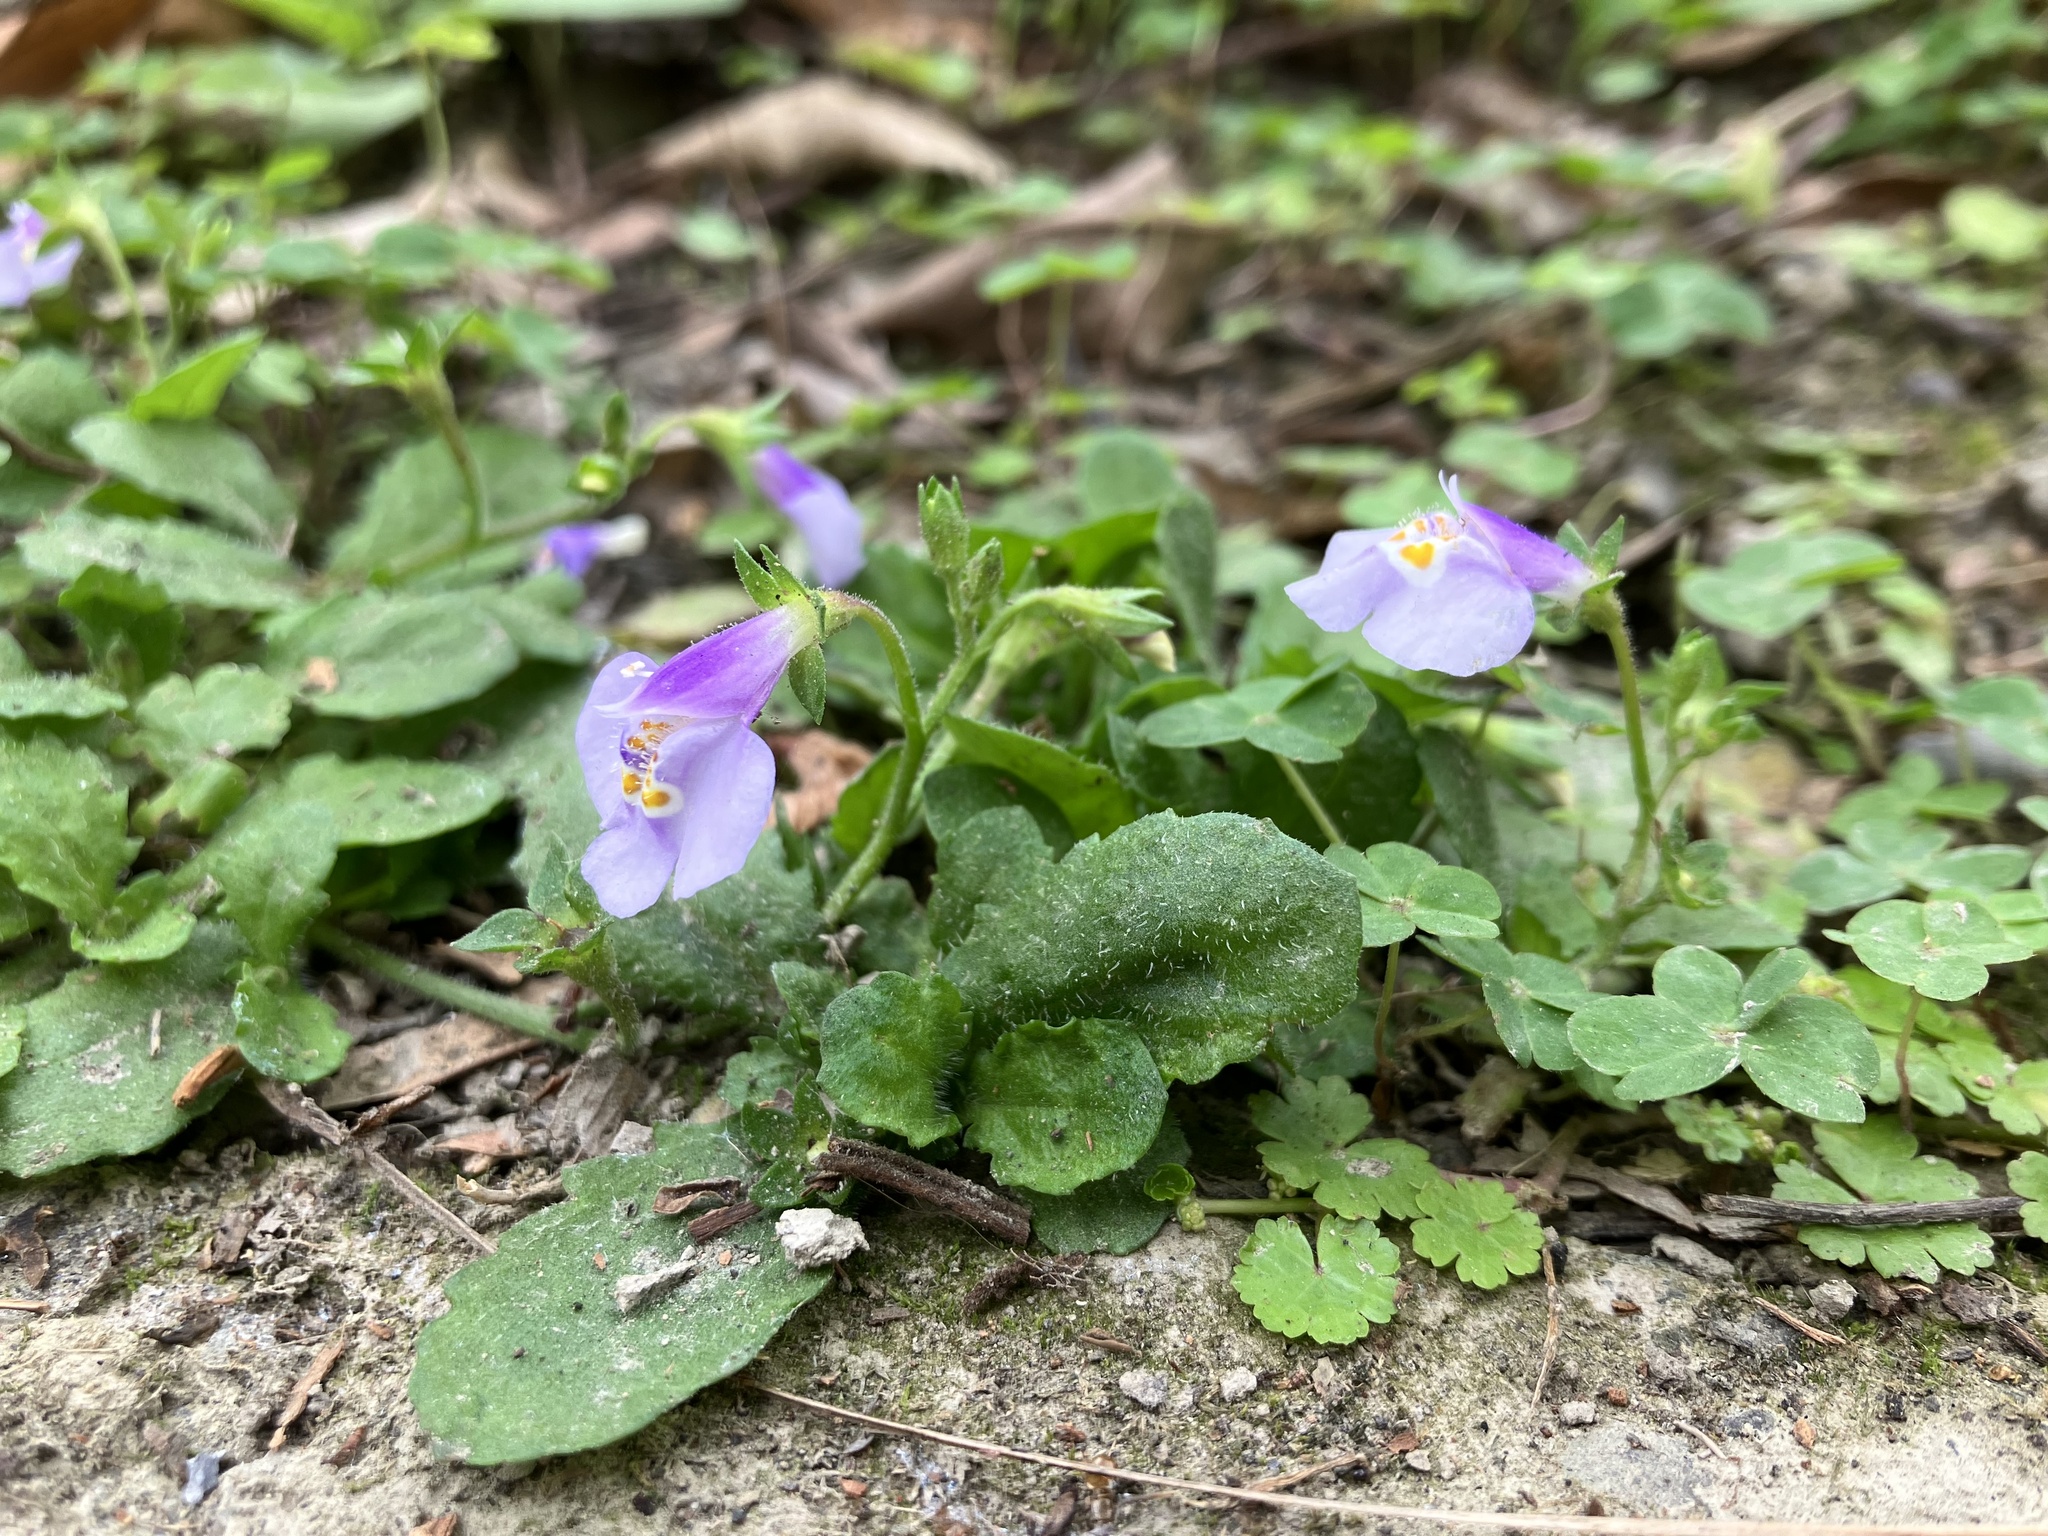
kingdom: Plantae
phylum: Tracheophyta
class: Magnoliopsida
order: Lamiales
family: Mazaceae
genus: Mazus
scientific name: Mazus fauriei
